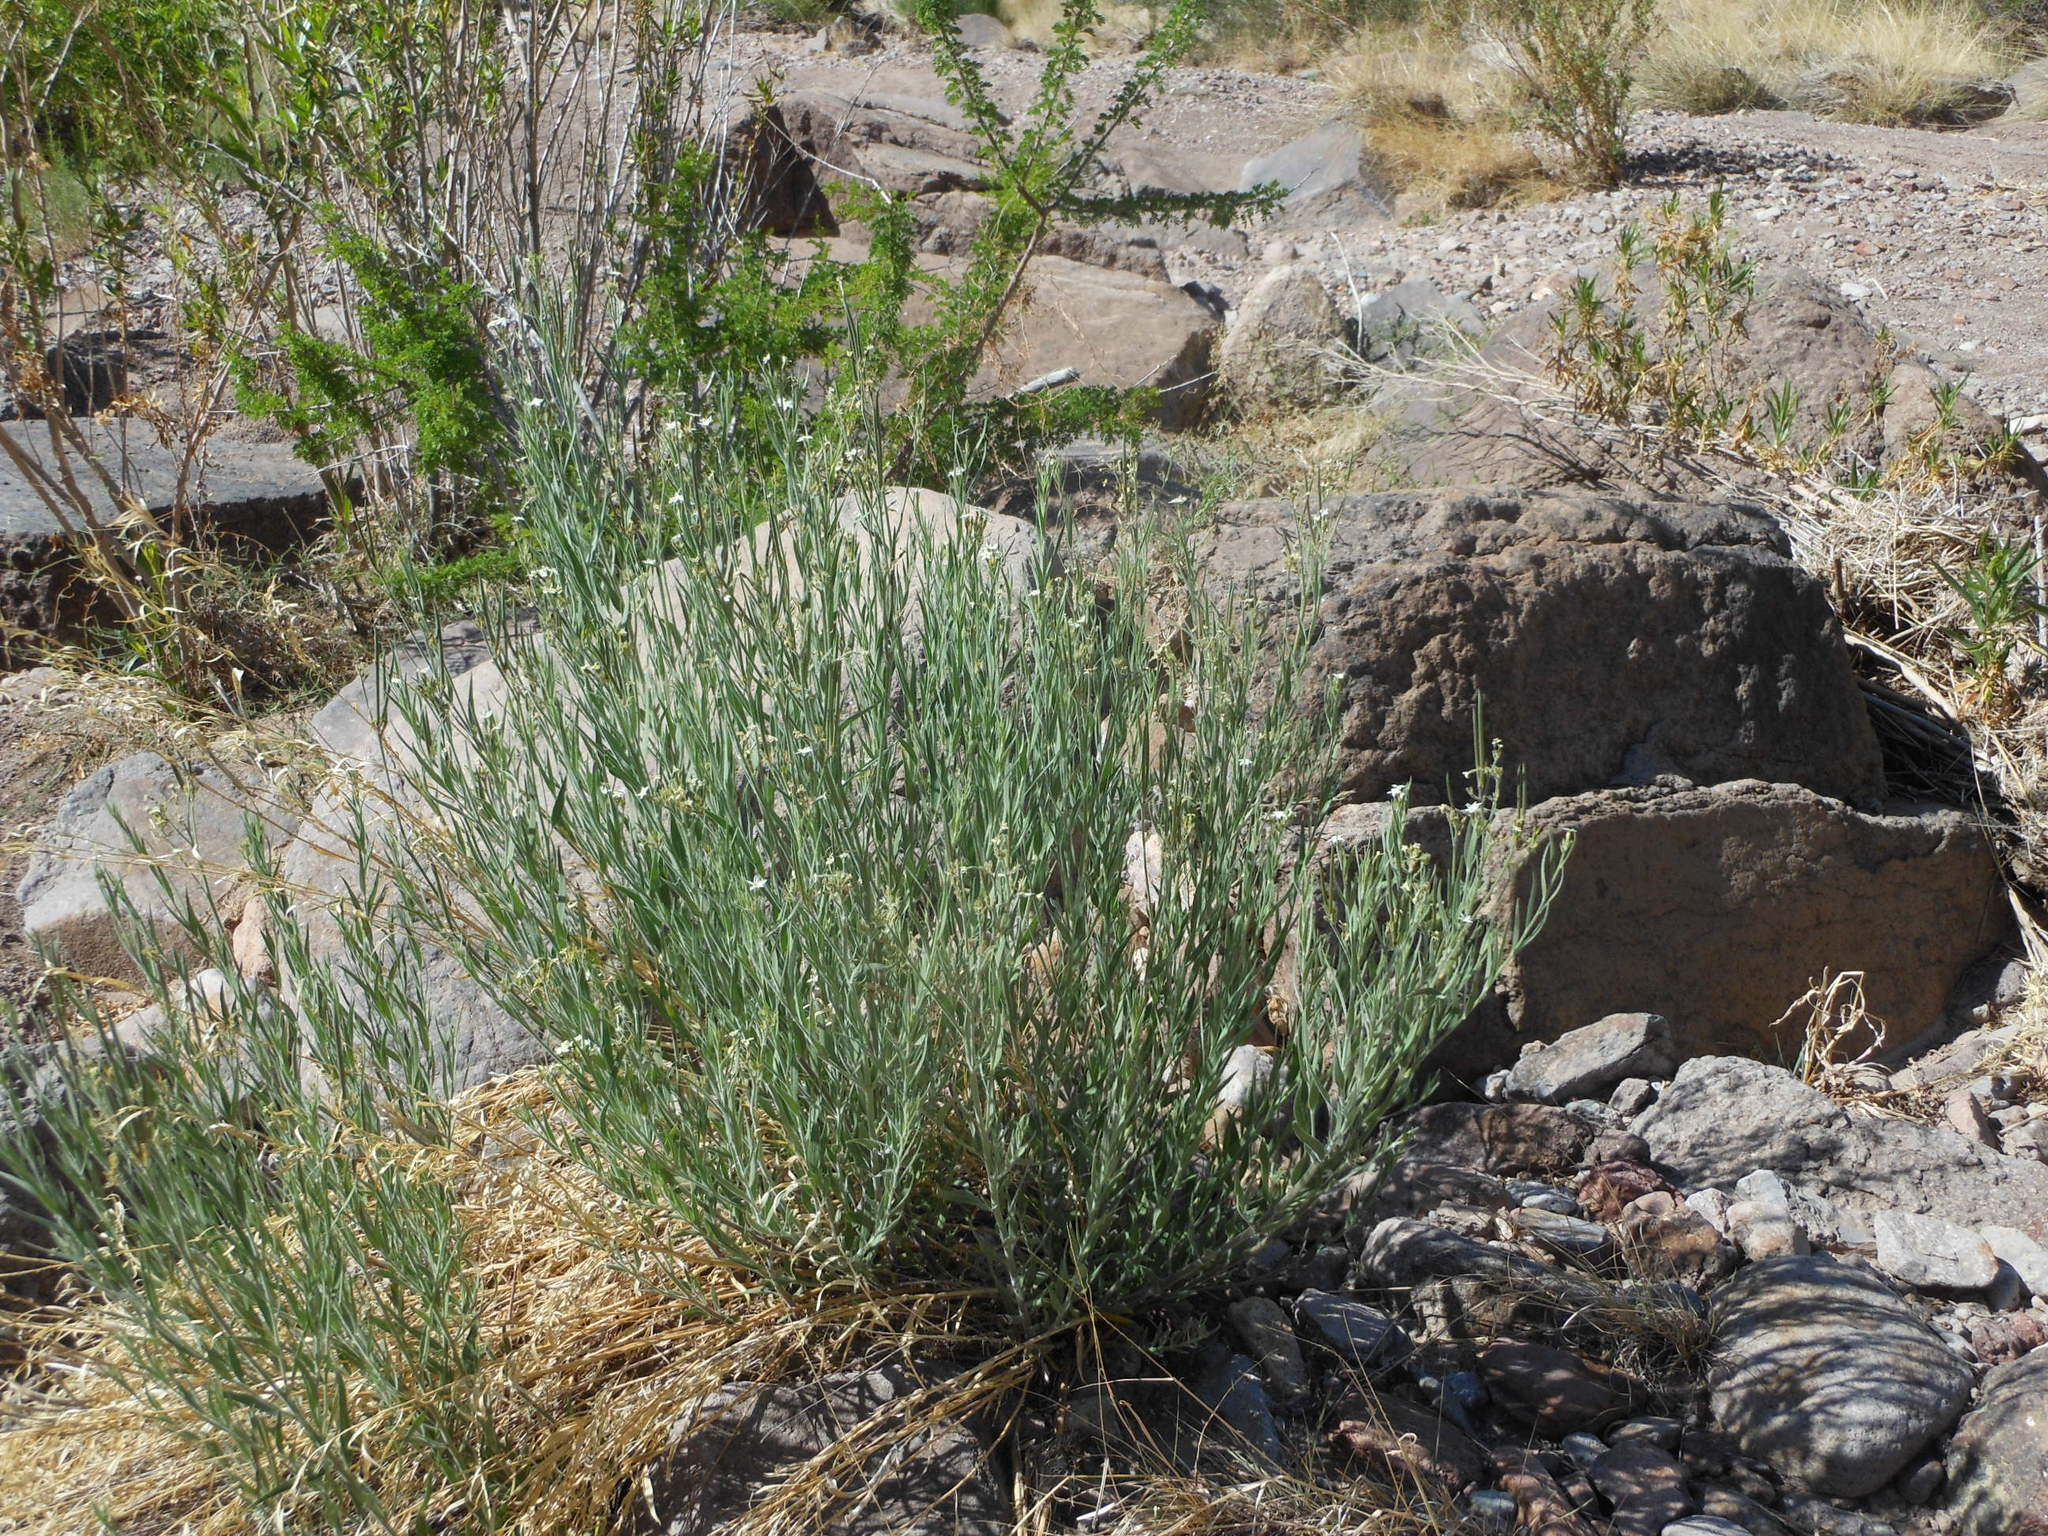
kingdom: Plantae
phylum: Tracheophyta
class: Magnoliopsida
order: Gentianales
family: Apocynaceae
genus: Amsonia
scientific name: Amsonia palmeri
